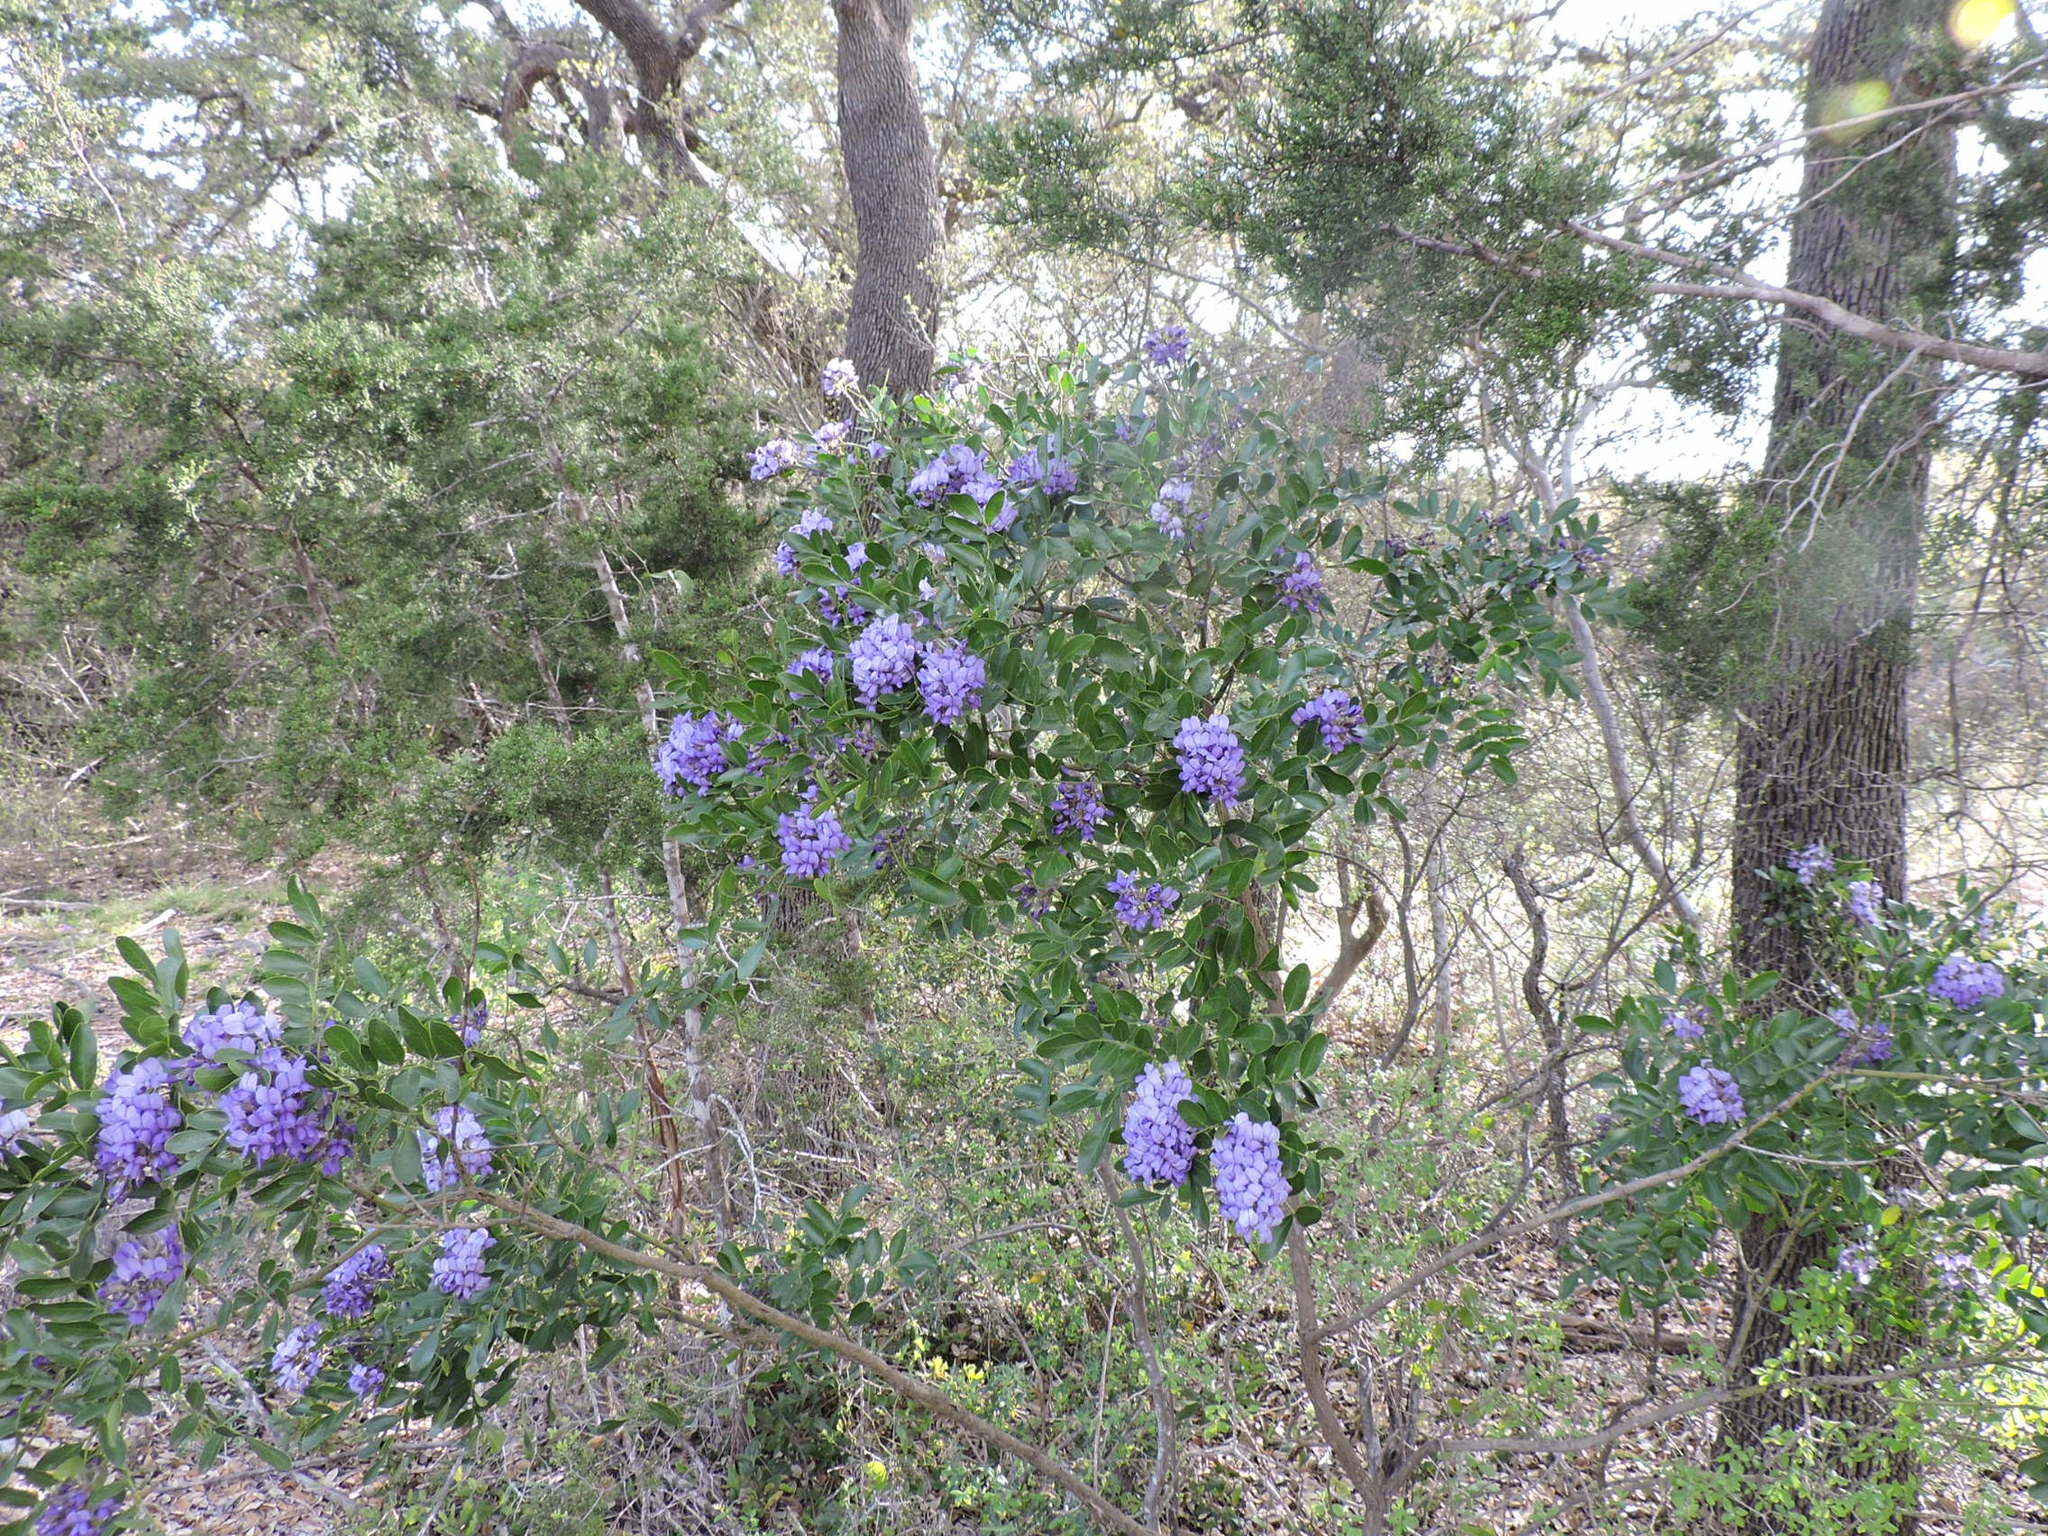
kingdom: Plantae
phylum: Tracheophyta
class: Magnoliopsida
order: Fabales
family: Fabaceae
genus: Dermatophyllum
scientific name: Dermatophyllum secundiflorum
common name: Texas-mountain-laurel
